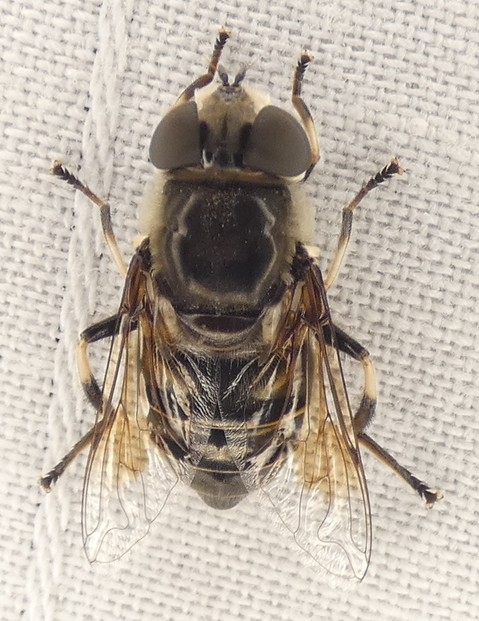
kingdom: Animalia
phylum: Arthropoda
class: Insecta
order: Diptera
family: Syrphidae
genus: Eristalis
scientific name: Eristalis dimidiata
